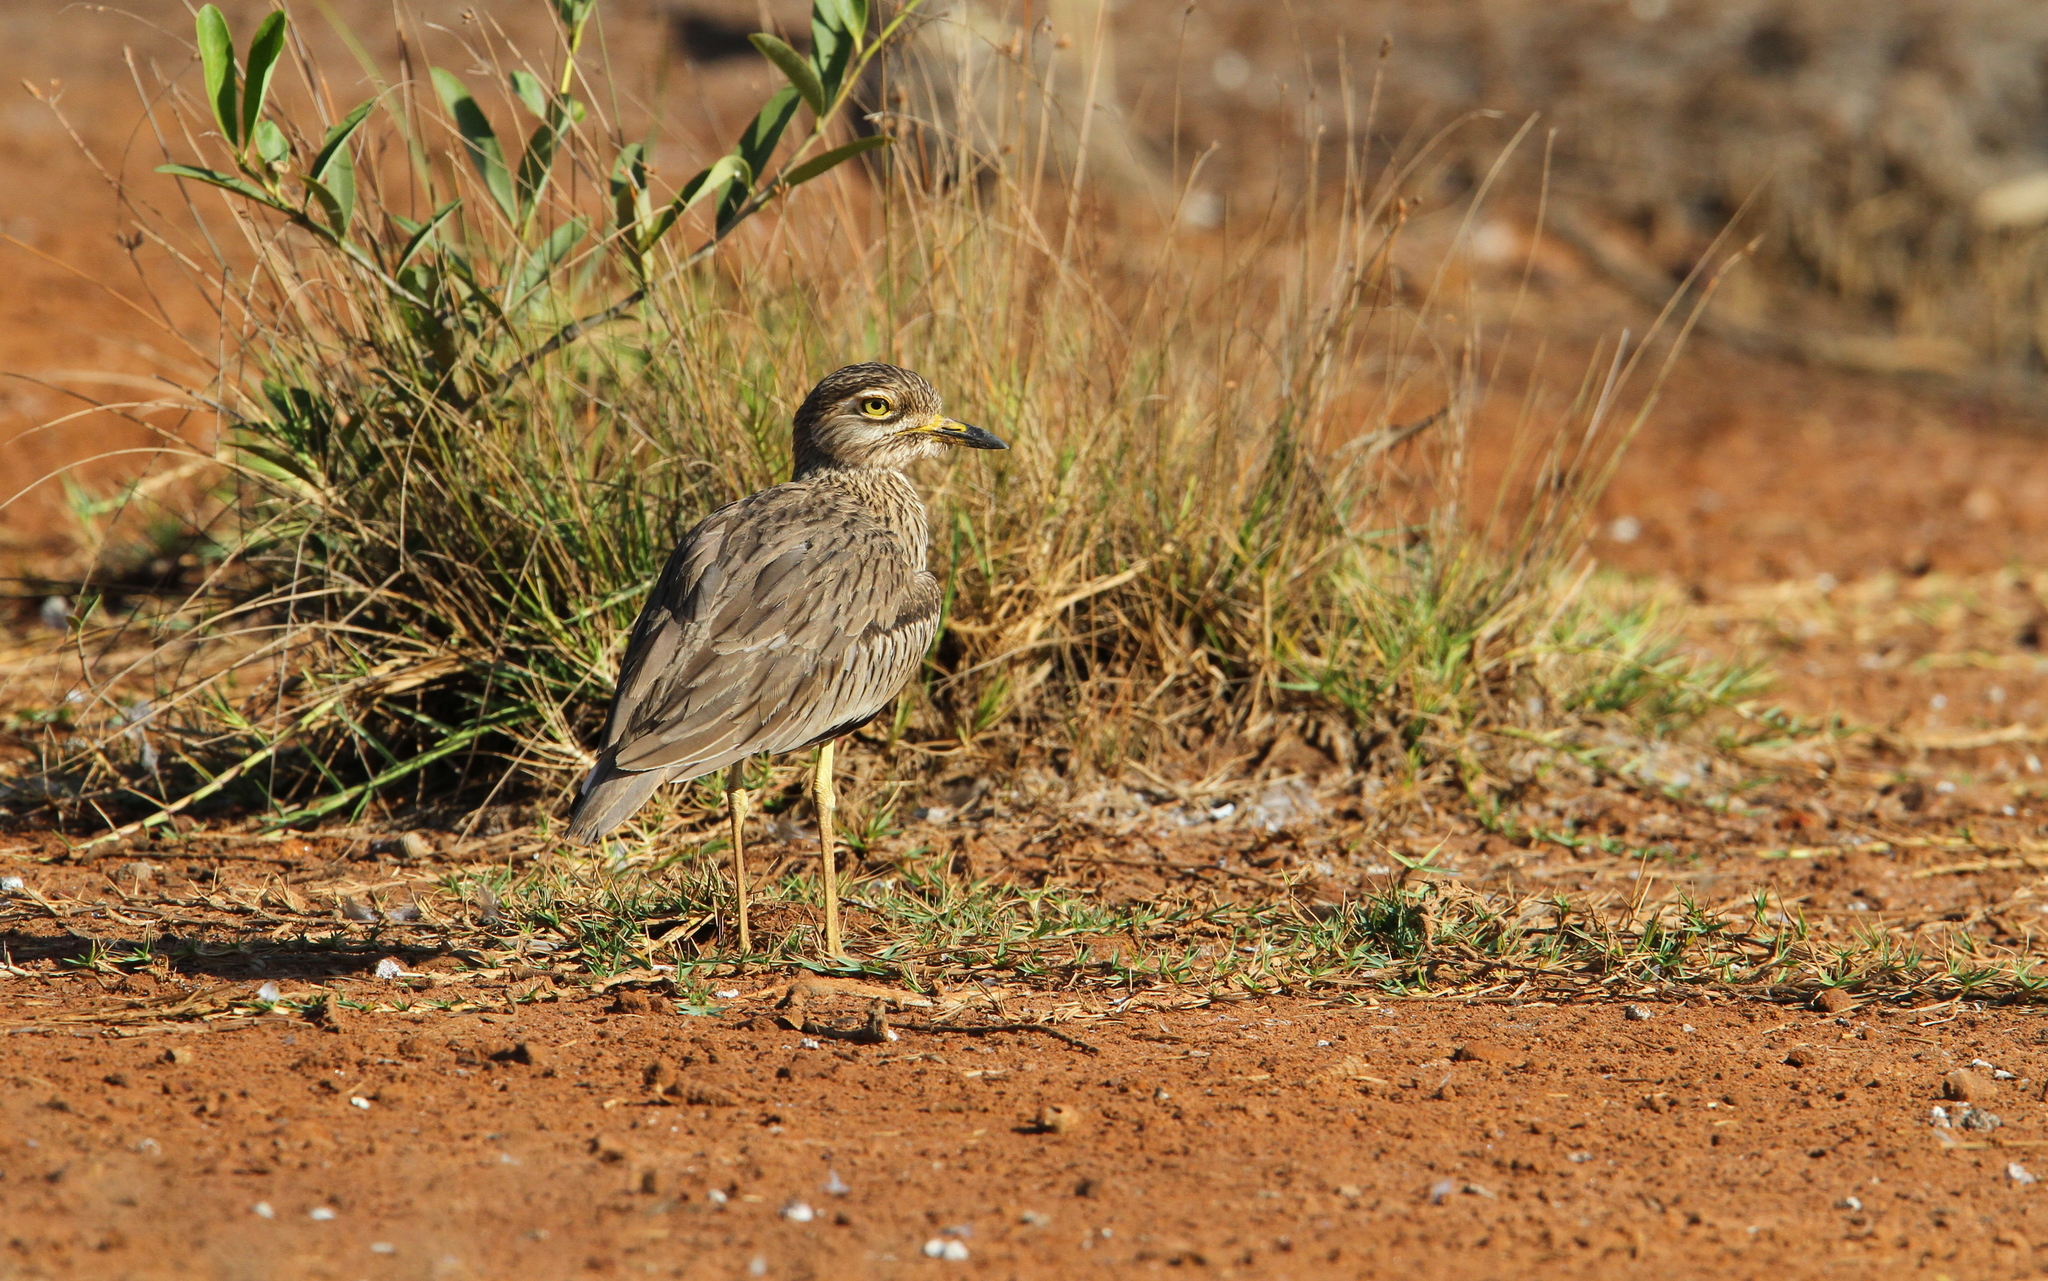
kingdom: Animalia
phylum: Chordata
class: Aves
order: Charadriiformes
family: Burhinidae
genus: Burhinus
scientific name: Burhinus senegalensis
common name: Senegal thick-knee
